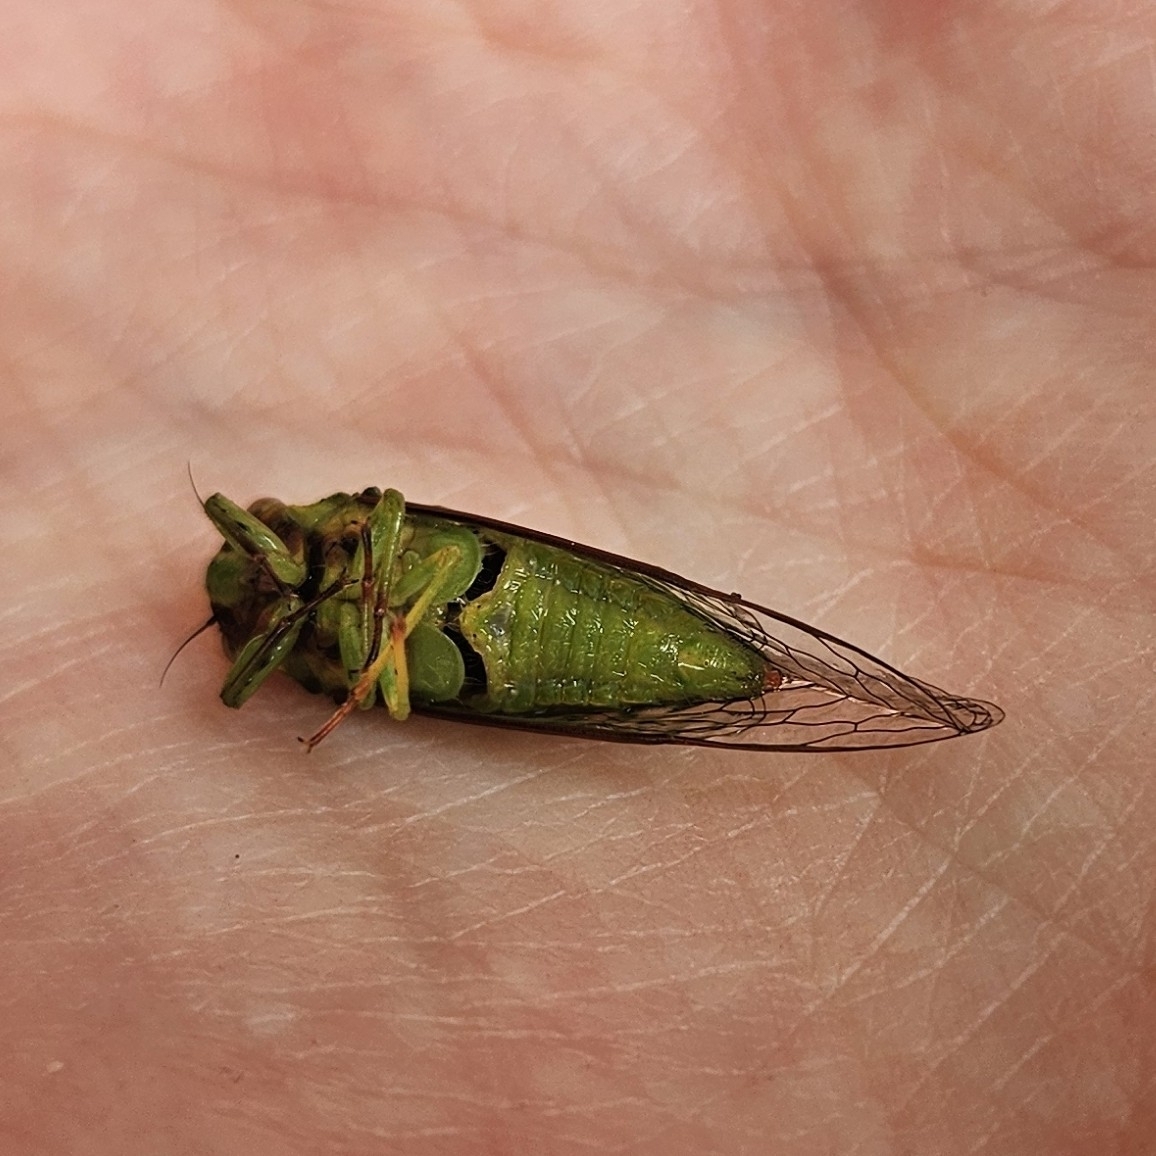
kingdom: Animalia
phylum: Arthropoda
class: Insecta
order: Hemiptera
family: Cicadidae
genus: Kikihia
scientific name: Kikihia cutora
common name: Northern snoring cicada
